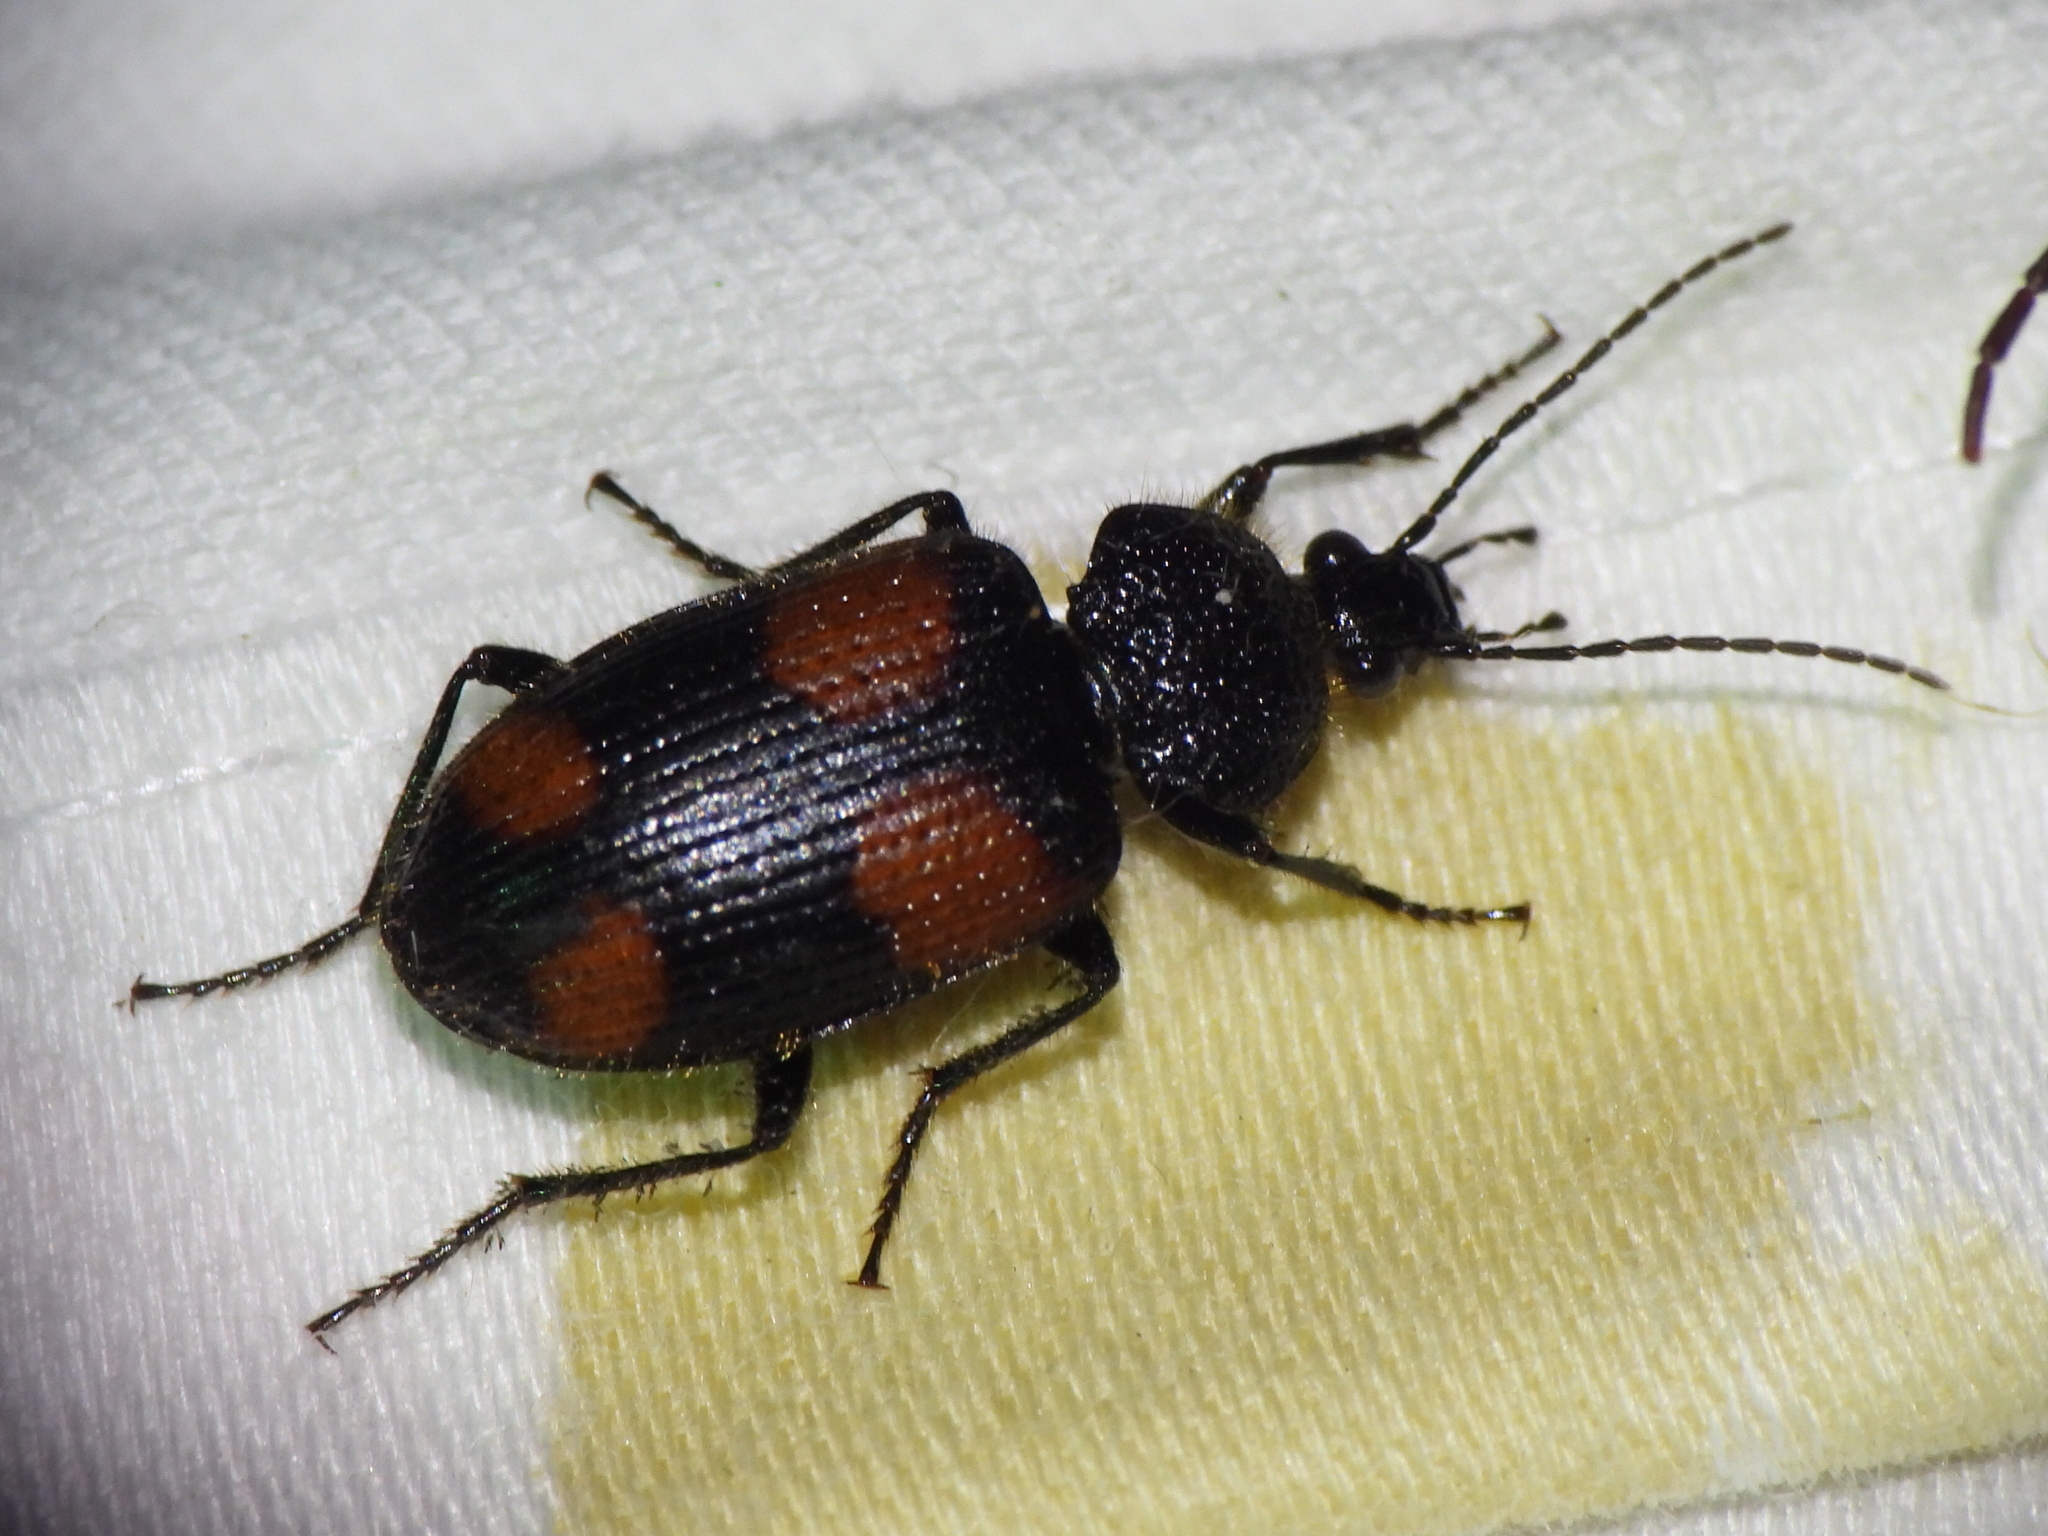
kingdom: Animalia
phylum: Arthropoda
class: Insecta
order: Coleoptera
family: Carabidae
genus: Panagaeus
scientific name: Panagaeus cruciger
